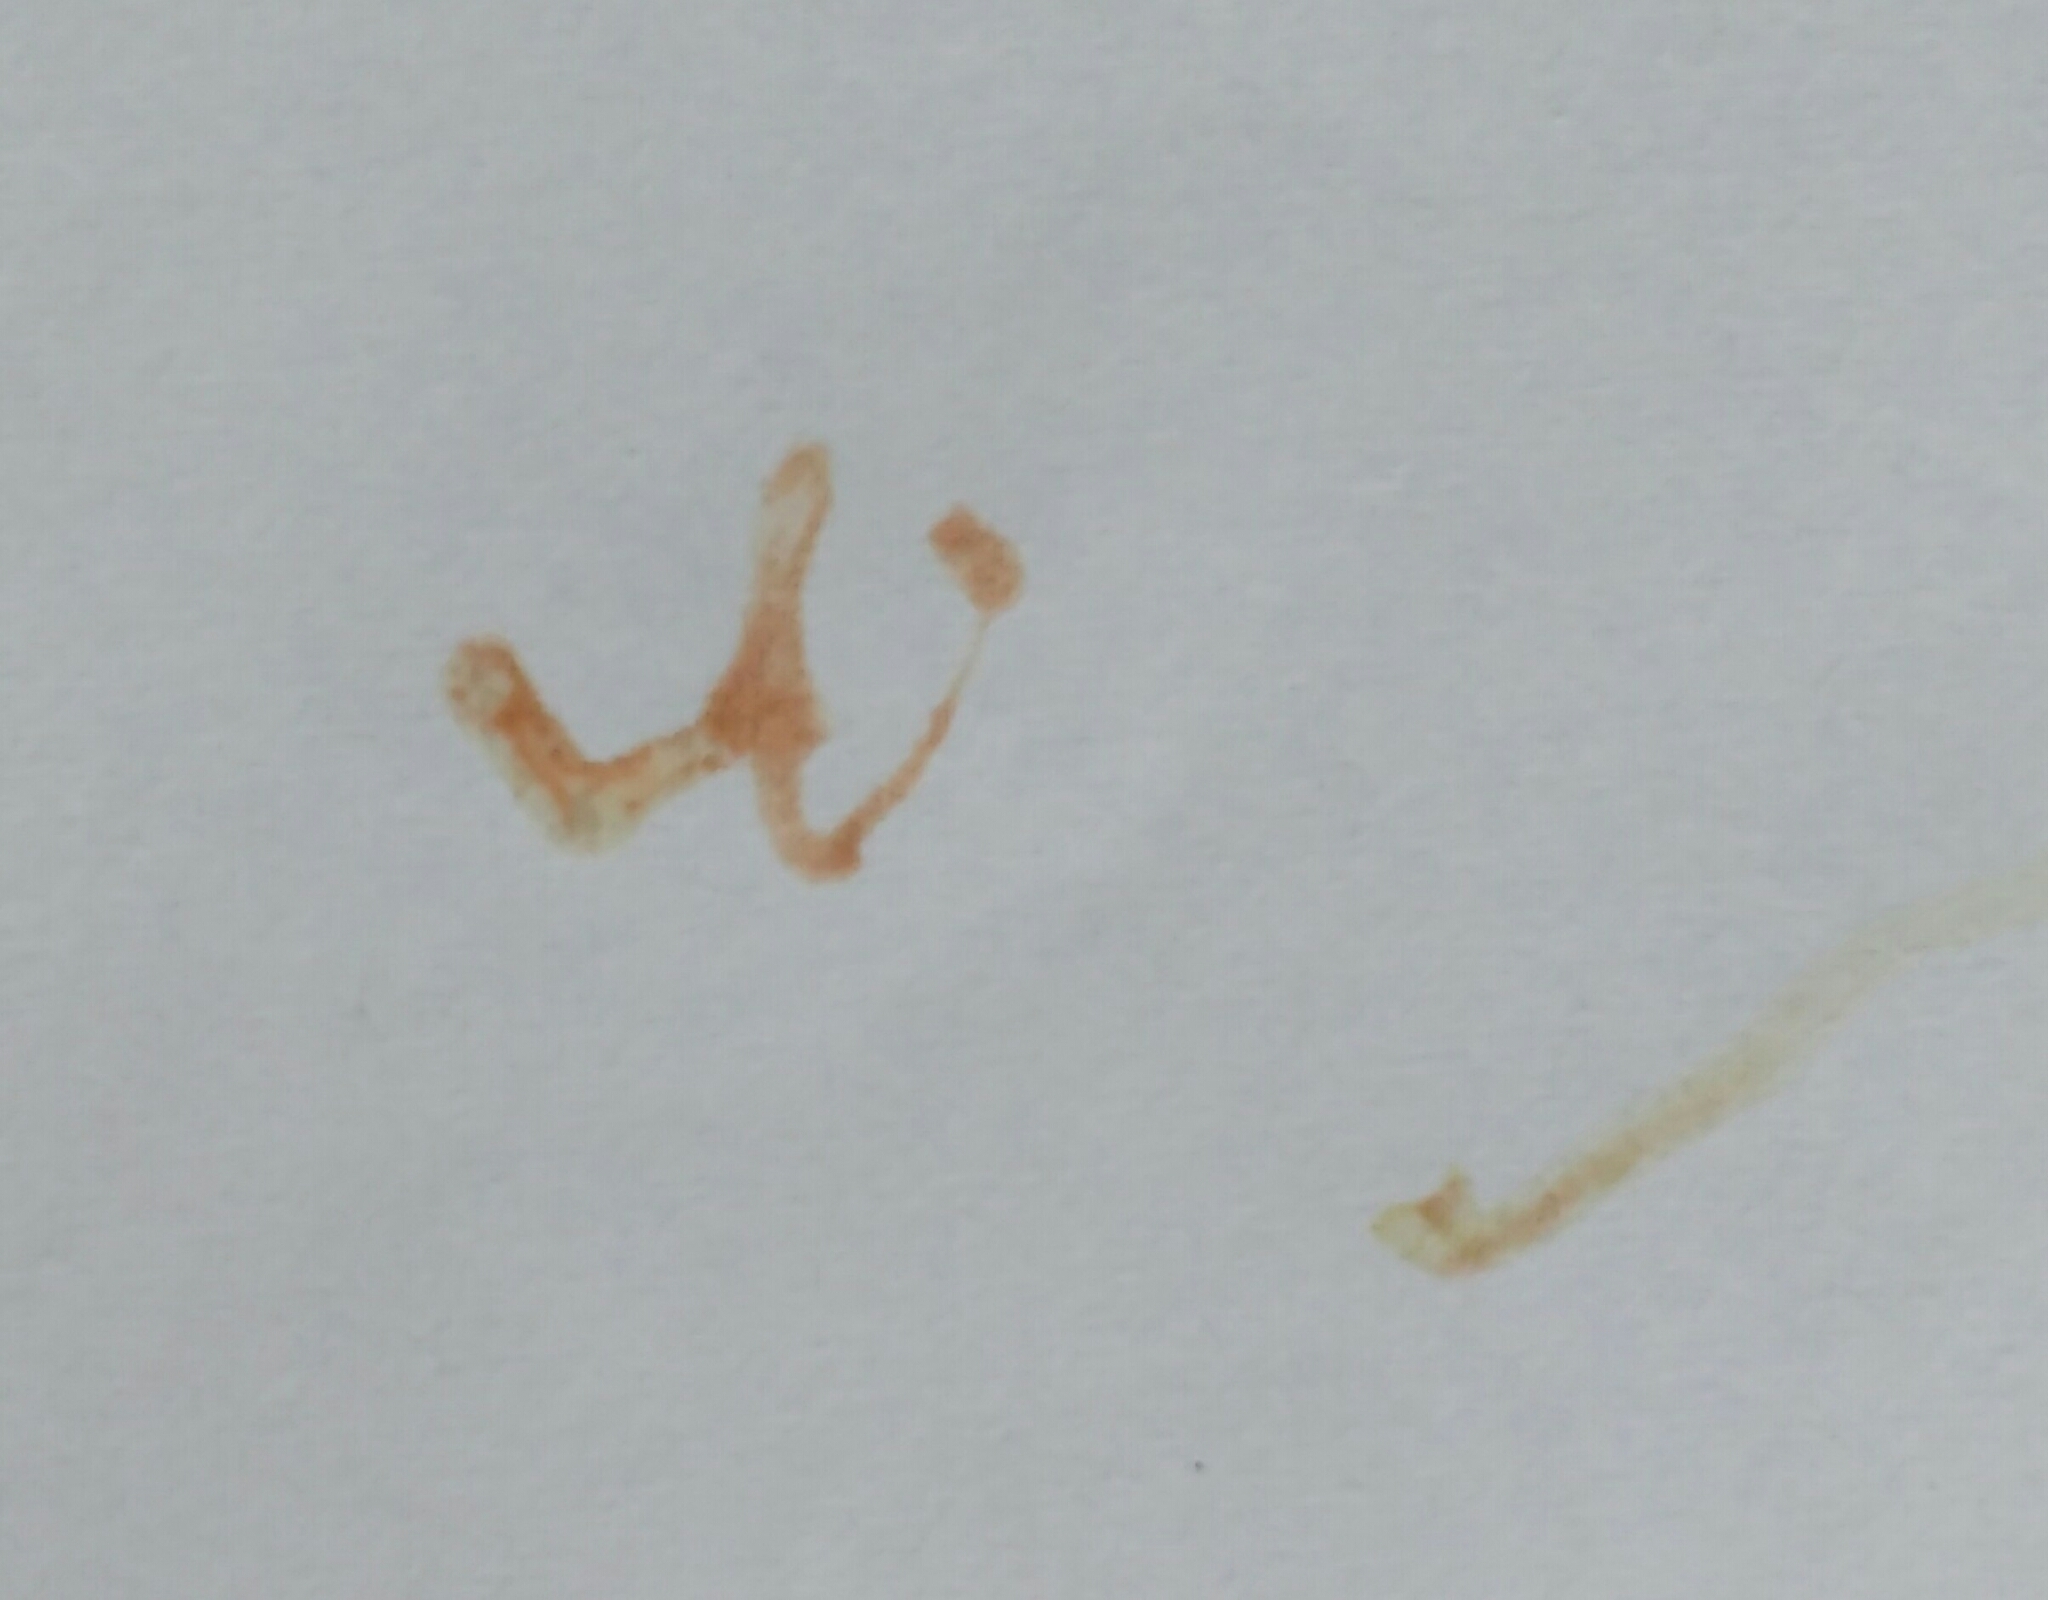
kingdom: Plantae
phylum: Tracheophyta
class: Magnoliopsida
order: Ranunculales
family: Papaveraceae
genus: Papaver
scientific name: Papaver dubium
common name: Long-headed poppy
